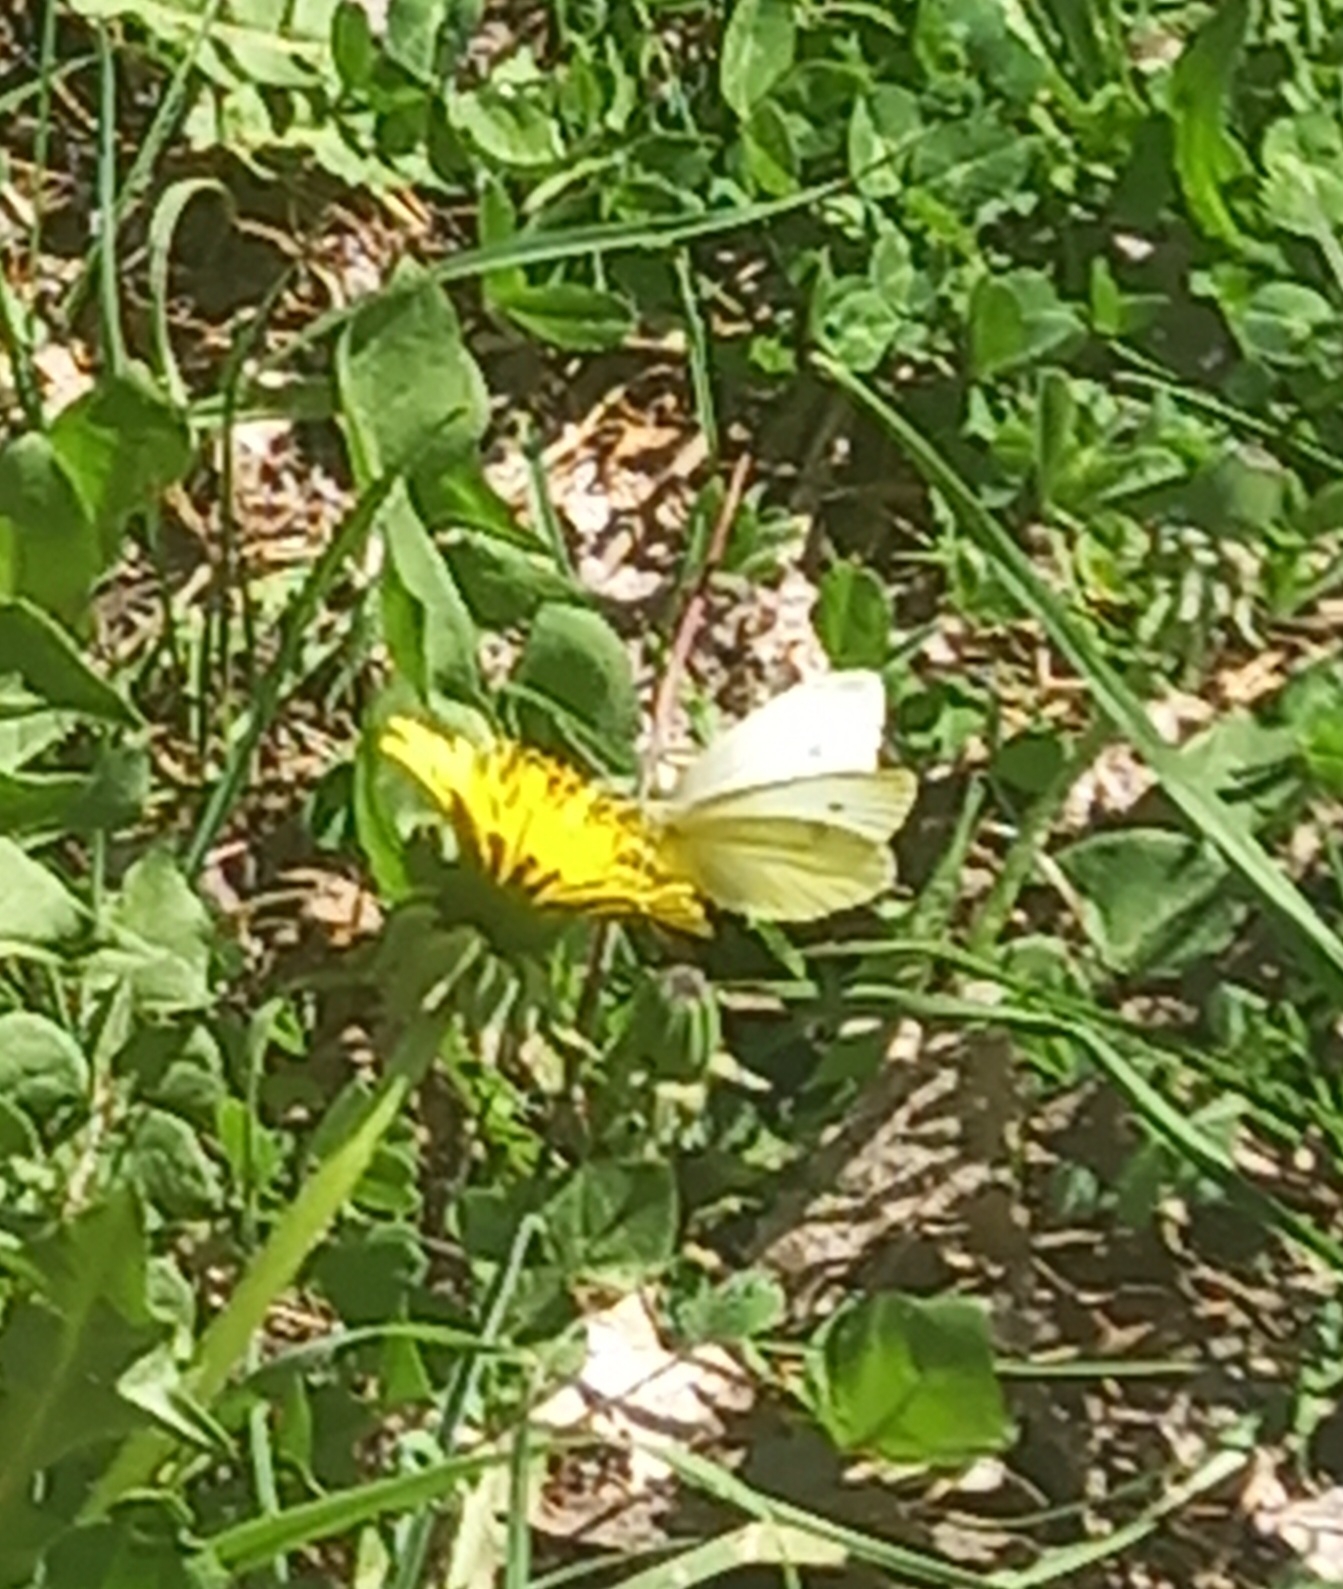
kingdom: Animalia
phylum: Arthropoda
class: Insecta
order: Lepidoptera
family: Pieridae
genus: Pieris
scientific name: Pieris rapae
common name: Small white
